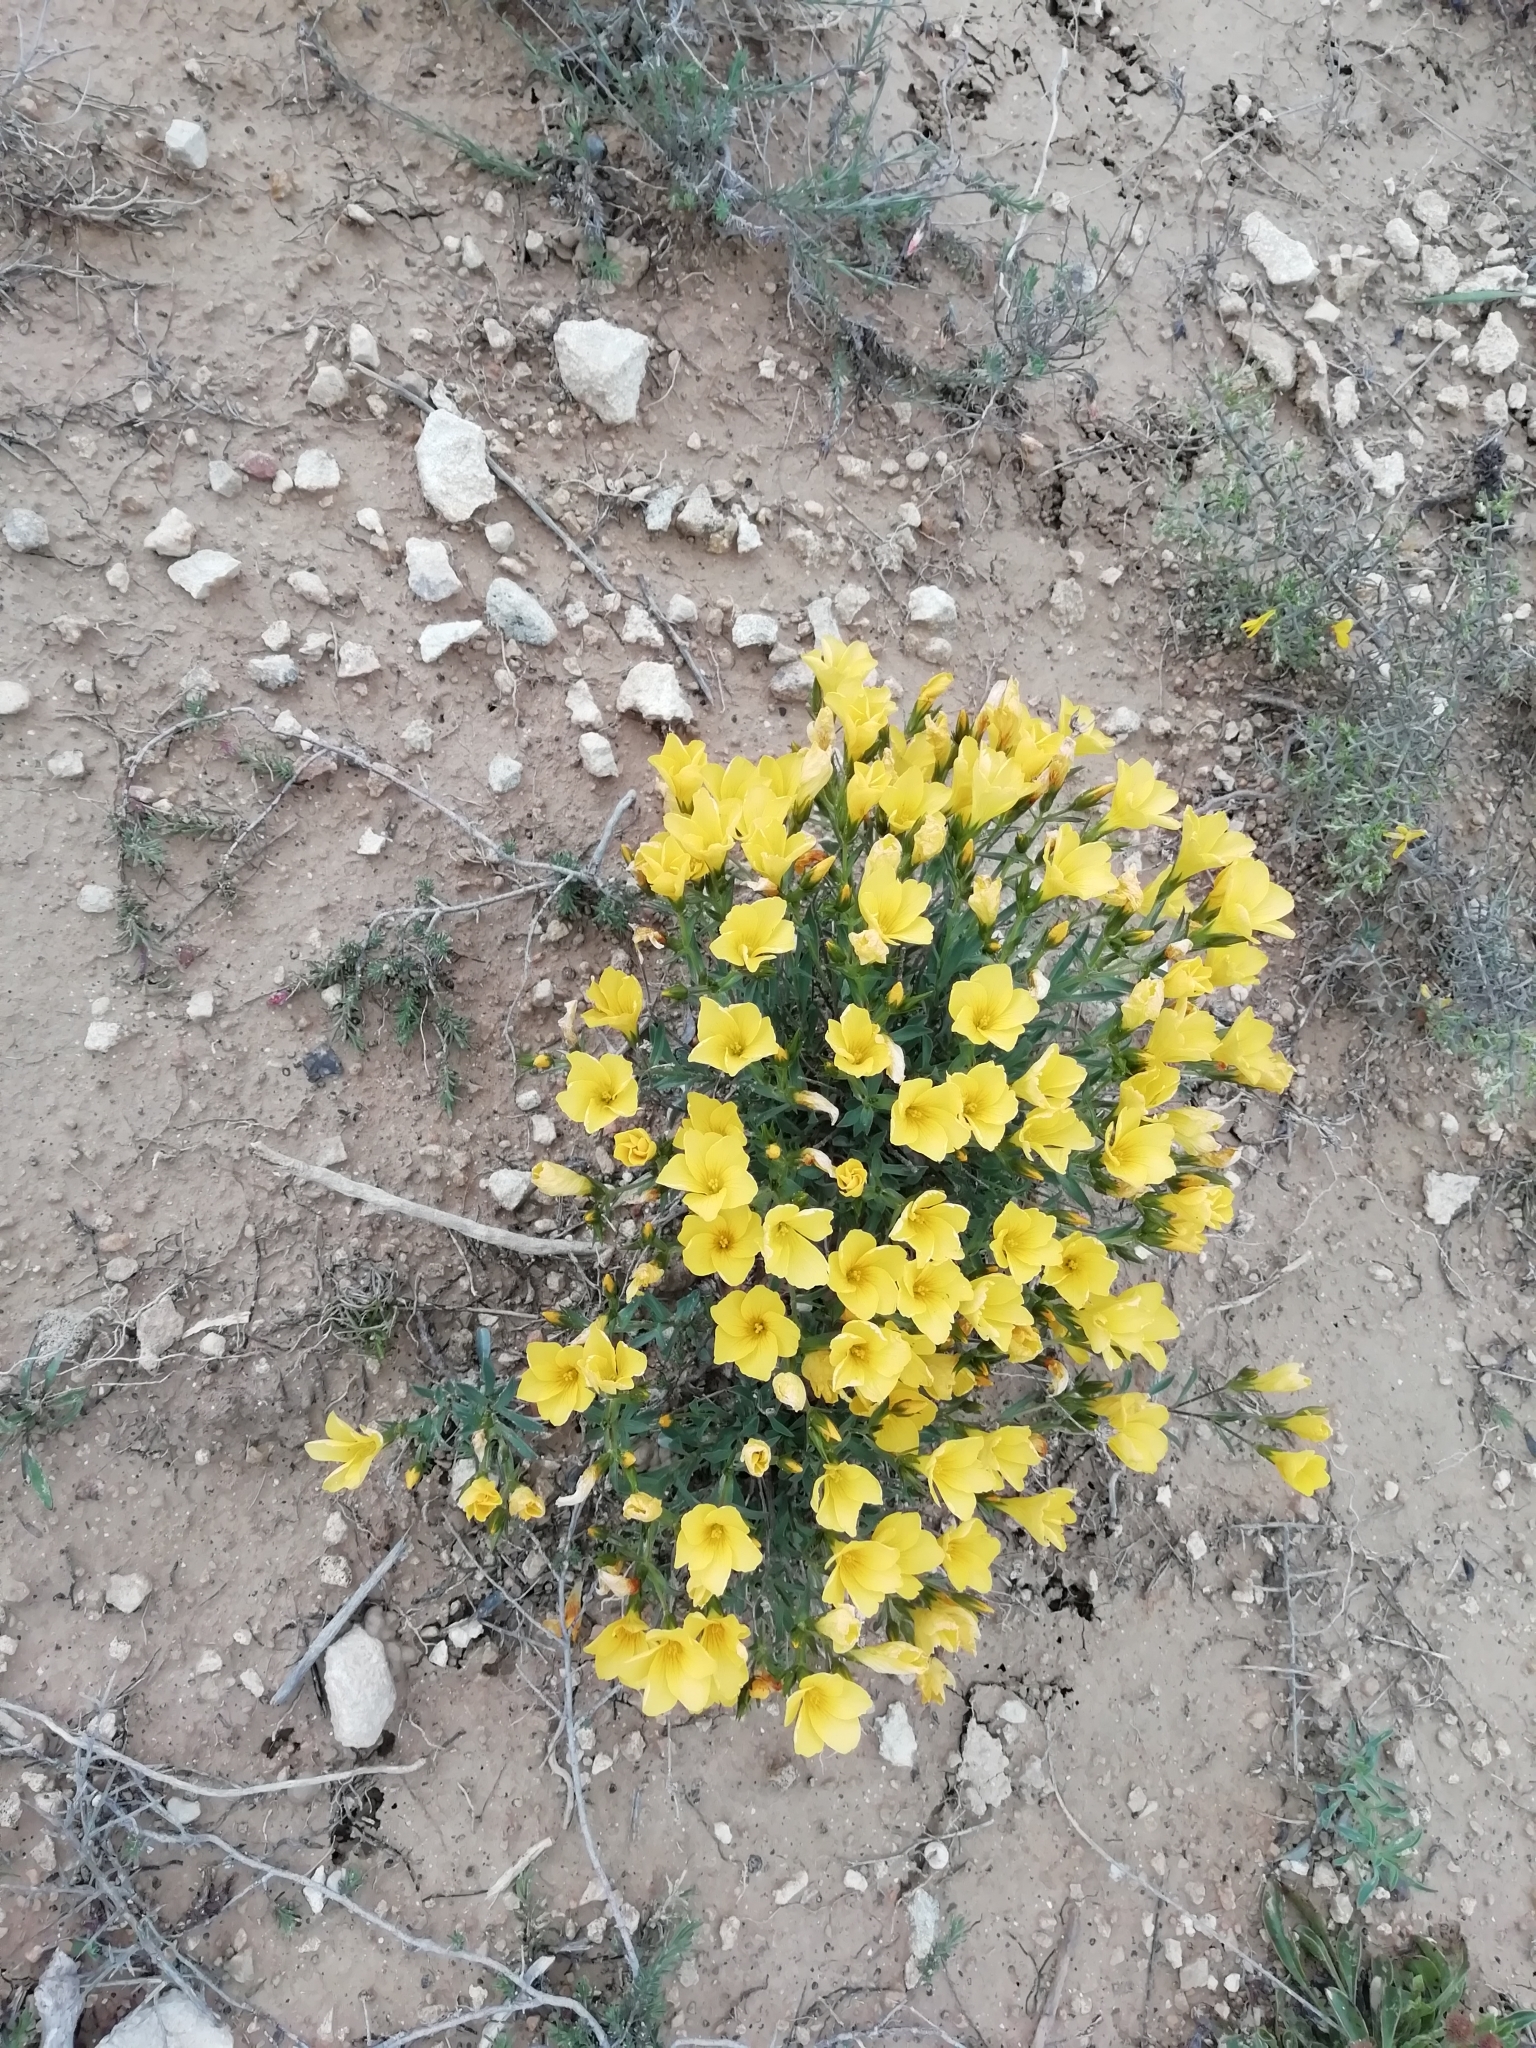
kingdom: Plantae
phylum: Tracheophyta
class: Magnoliopsida
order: Malpighiales
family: Linaceae
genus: Linum
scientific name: Linum campanulatum
